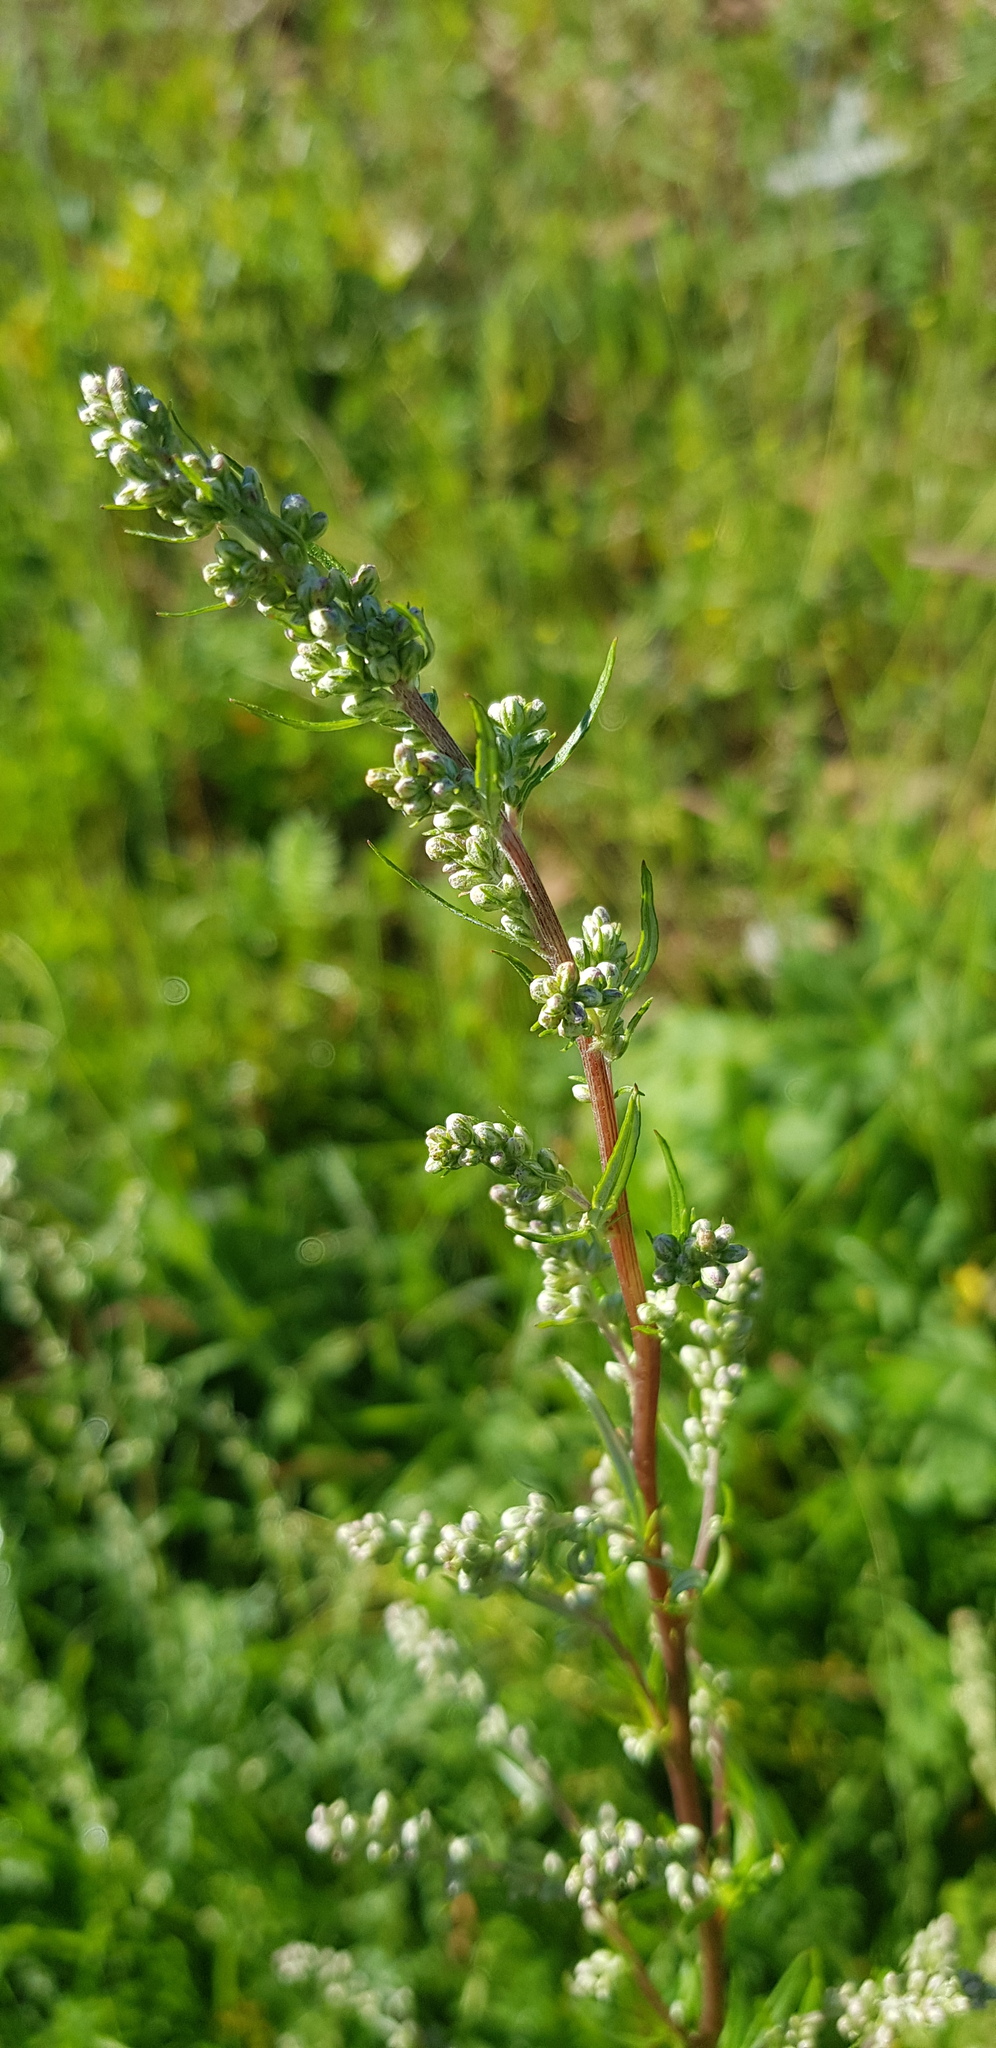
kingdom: Plantae
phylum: Tracheophyta
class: Magnoliopsida
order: Asterales
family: Asteraceae
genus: Artemisia
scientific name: Artemisia vulgaris
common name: Mugwort
